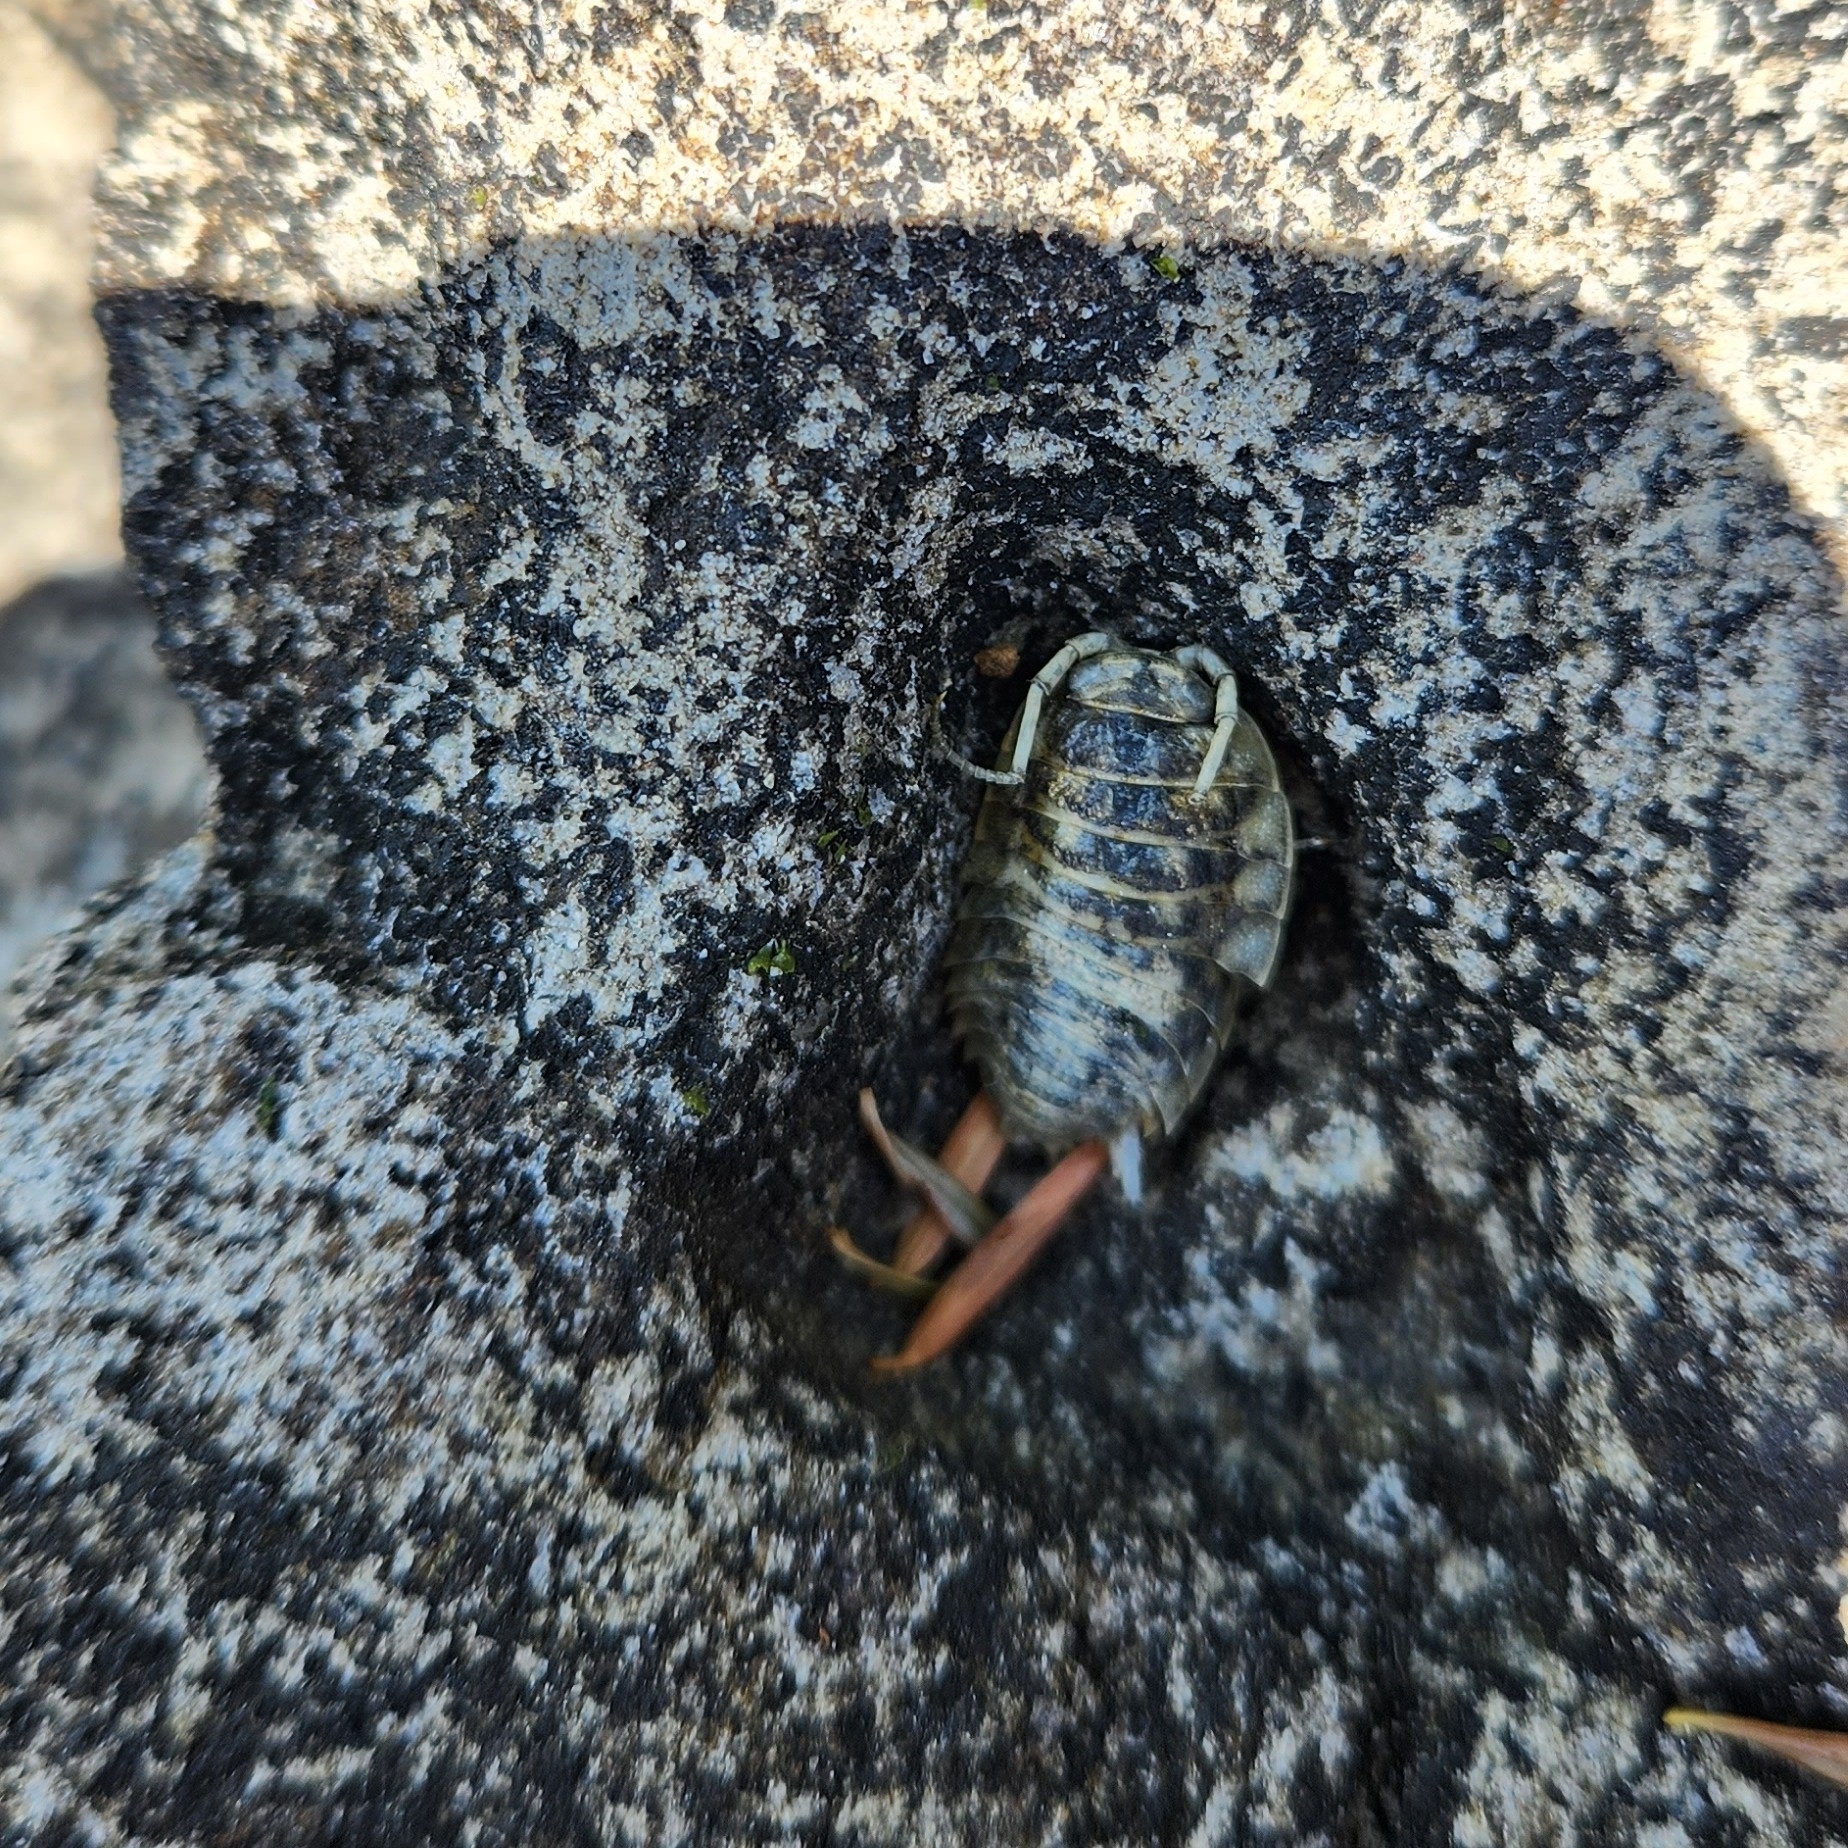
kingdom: Animalia
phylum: Arthropoda
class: Malacostraca
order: Isopoda
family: Ligiidae
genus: Ligia
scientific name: Ligia pallasii
